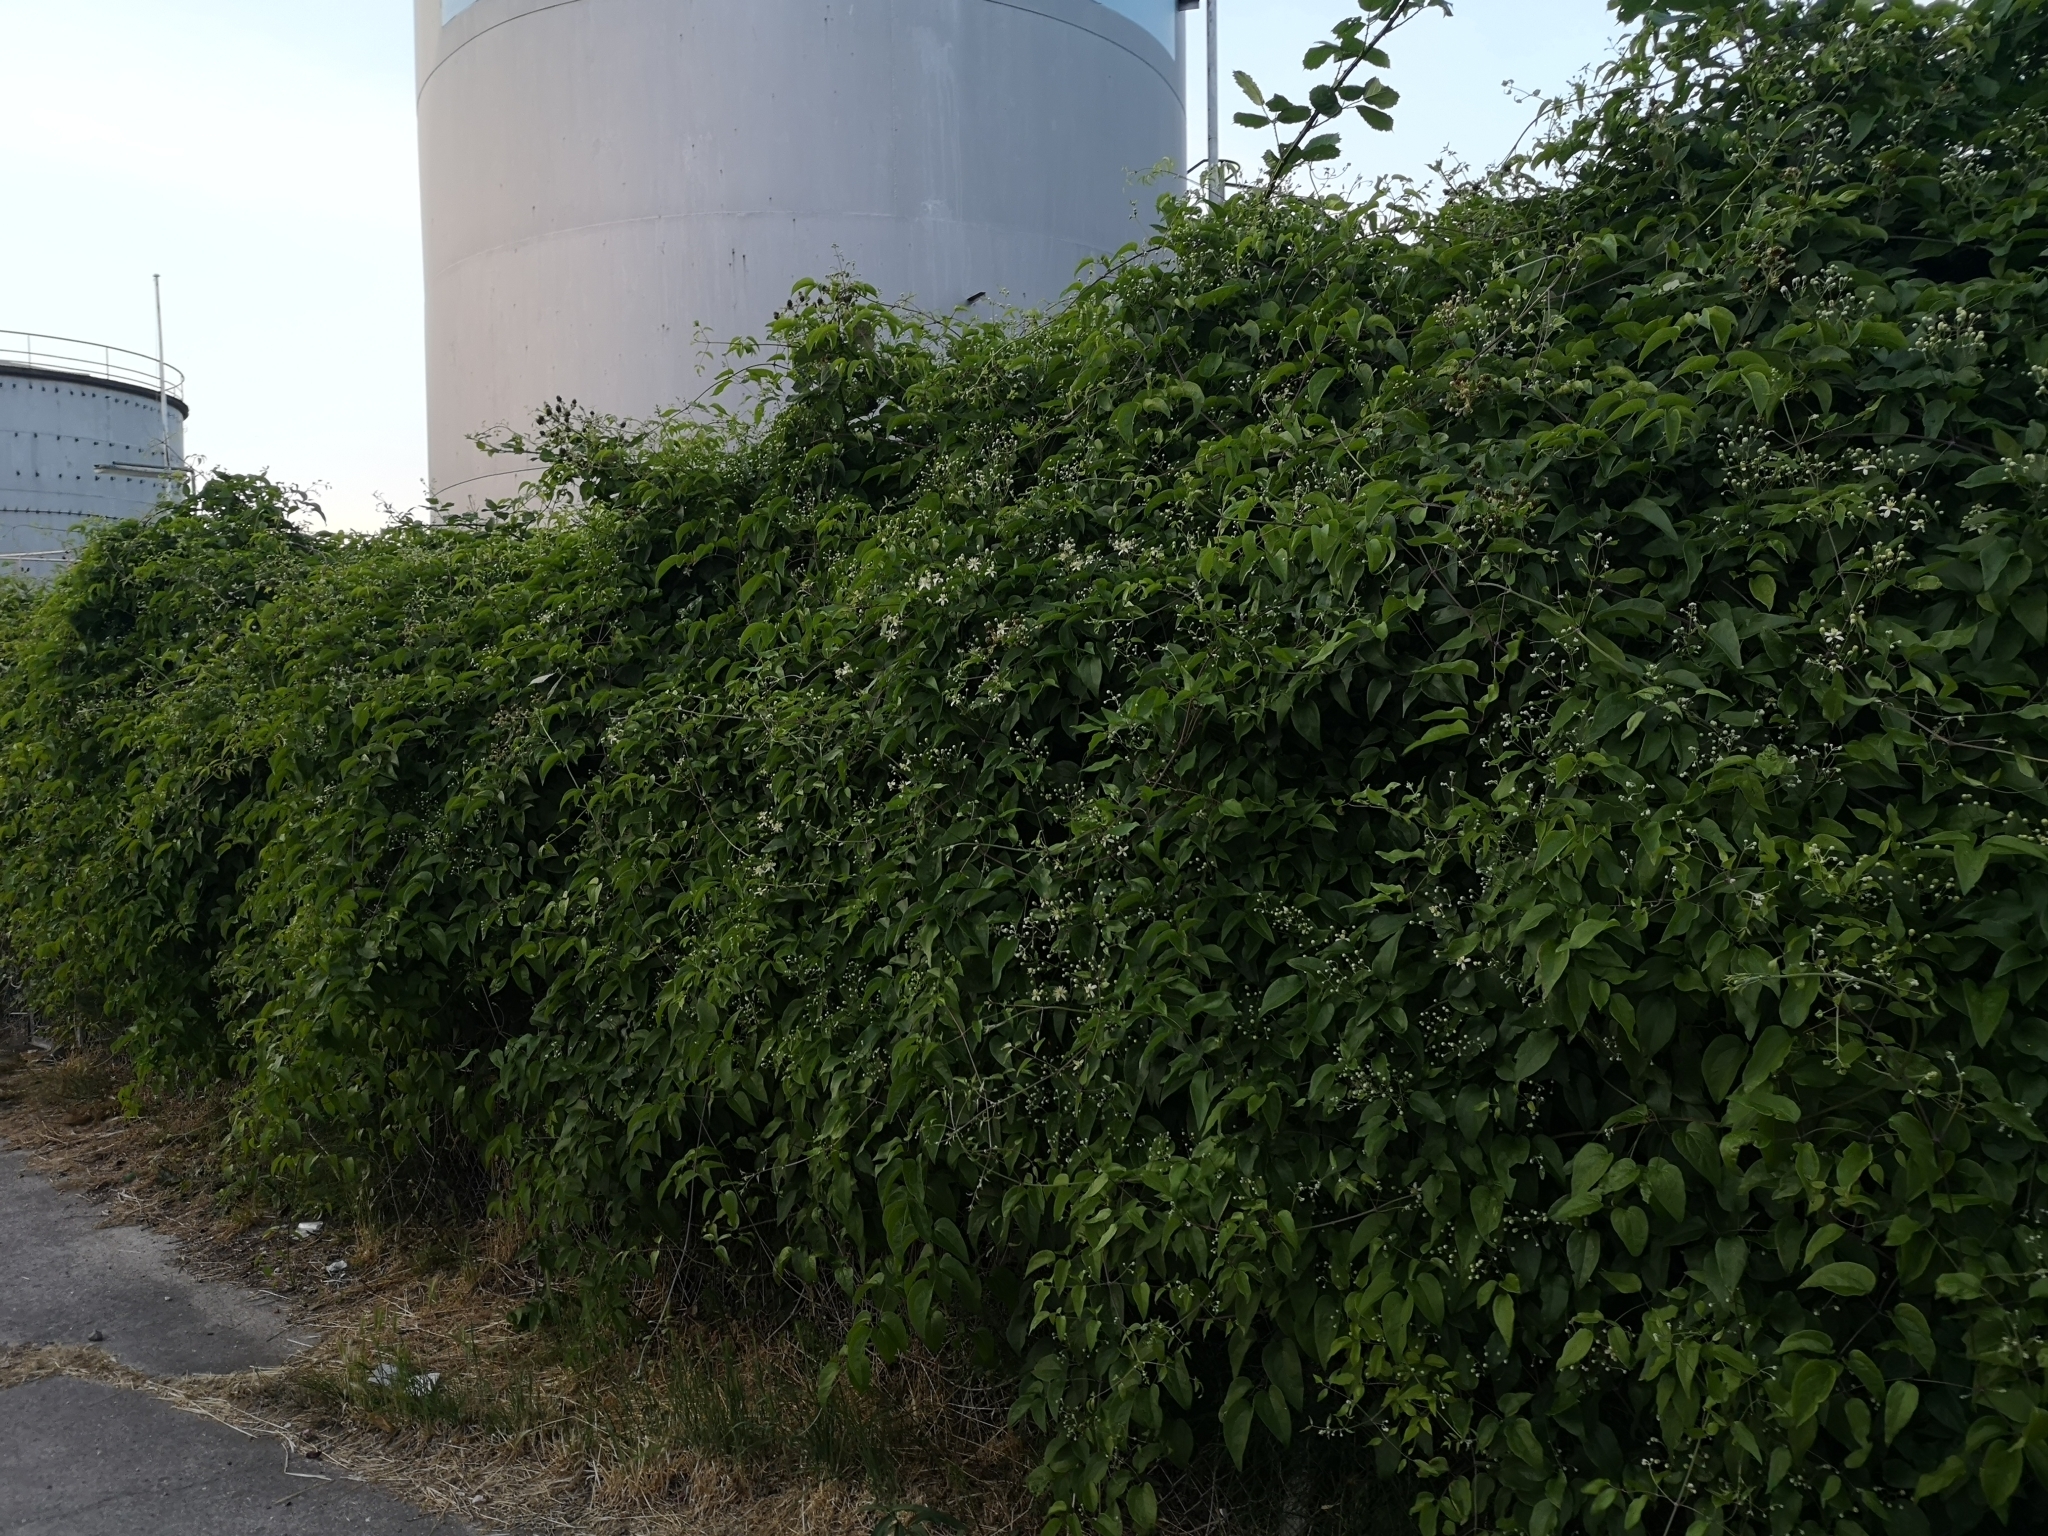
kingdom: Plantae
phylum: Tracheophyta
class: Magnoliopsida
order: Ranunculales
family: Ranunculaceae
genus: Clematis
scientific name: Clematis vitalba
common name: Evergreen clematis
